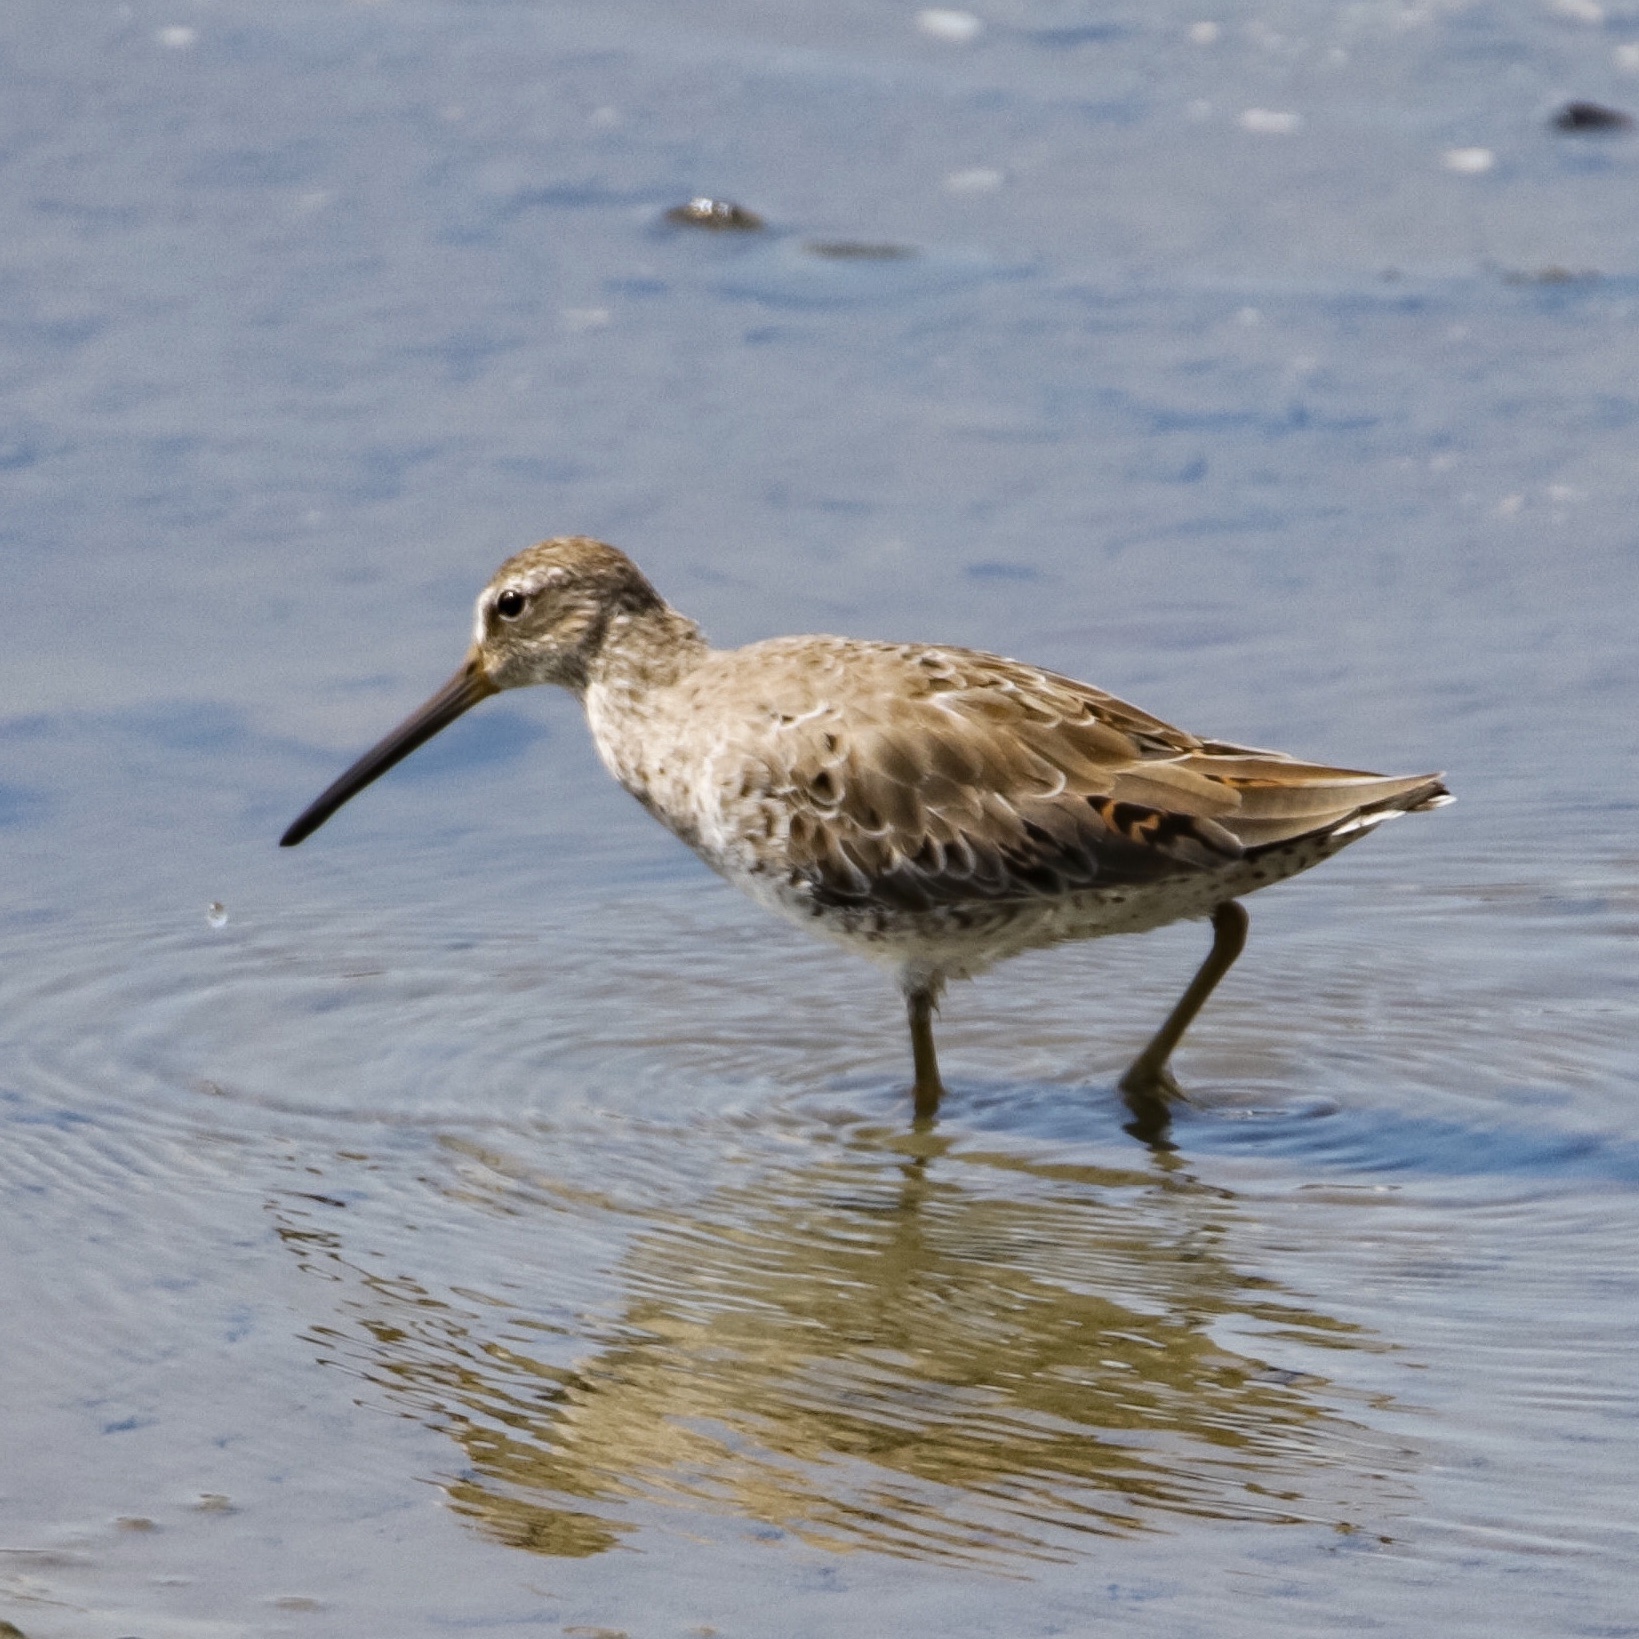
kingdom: Animalia
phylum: Chordata
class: Aves
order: Charadriiformes
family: Scolopacidae
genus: Limnodromus
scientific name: Limnodromus griseus
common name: Short-billed dowitcher
